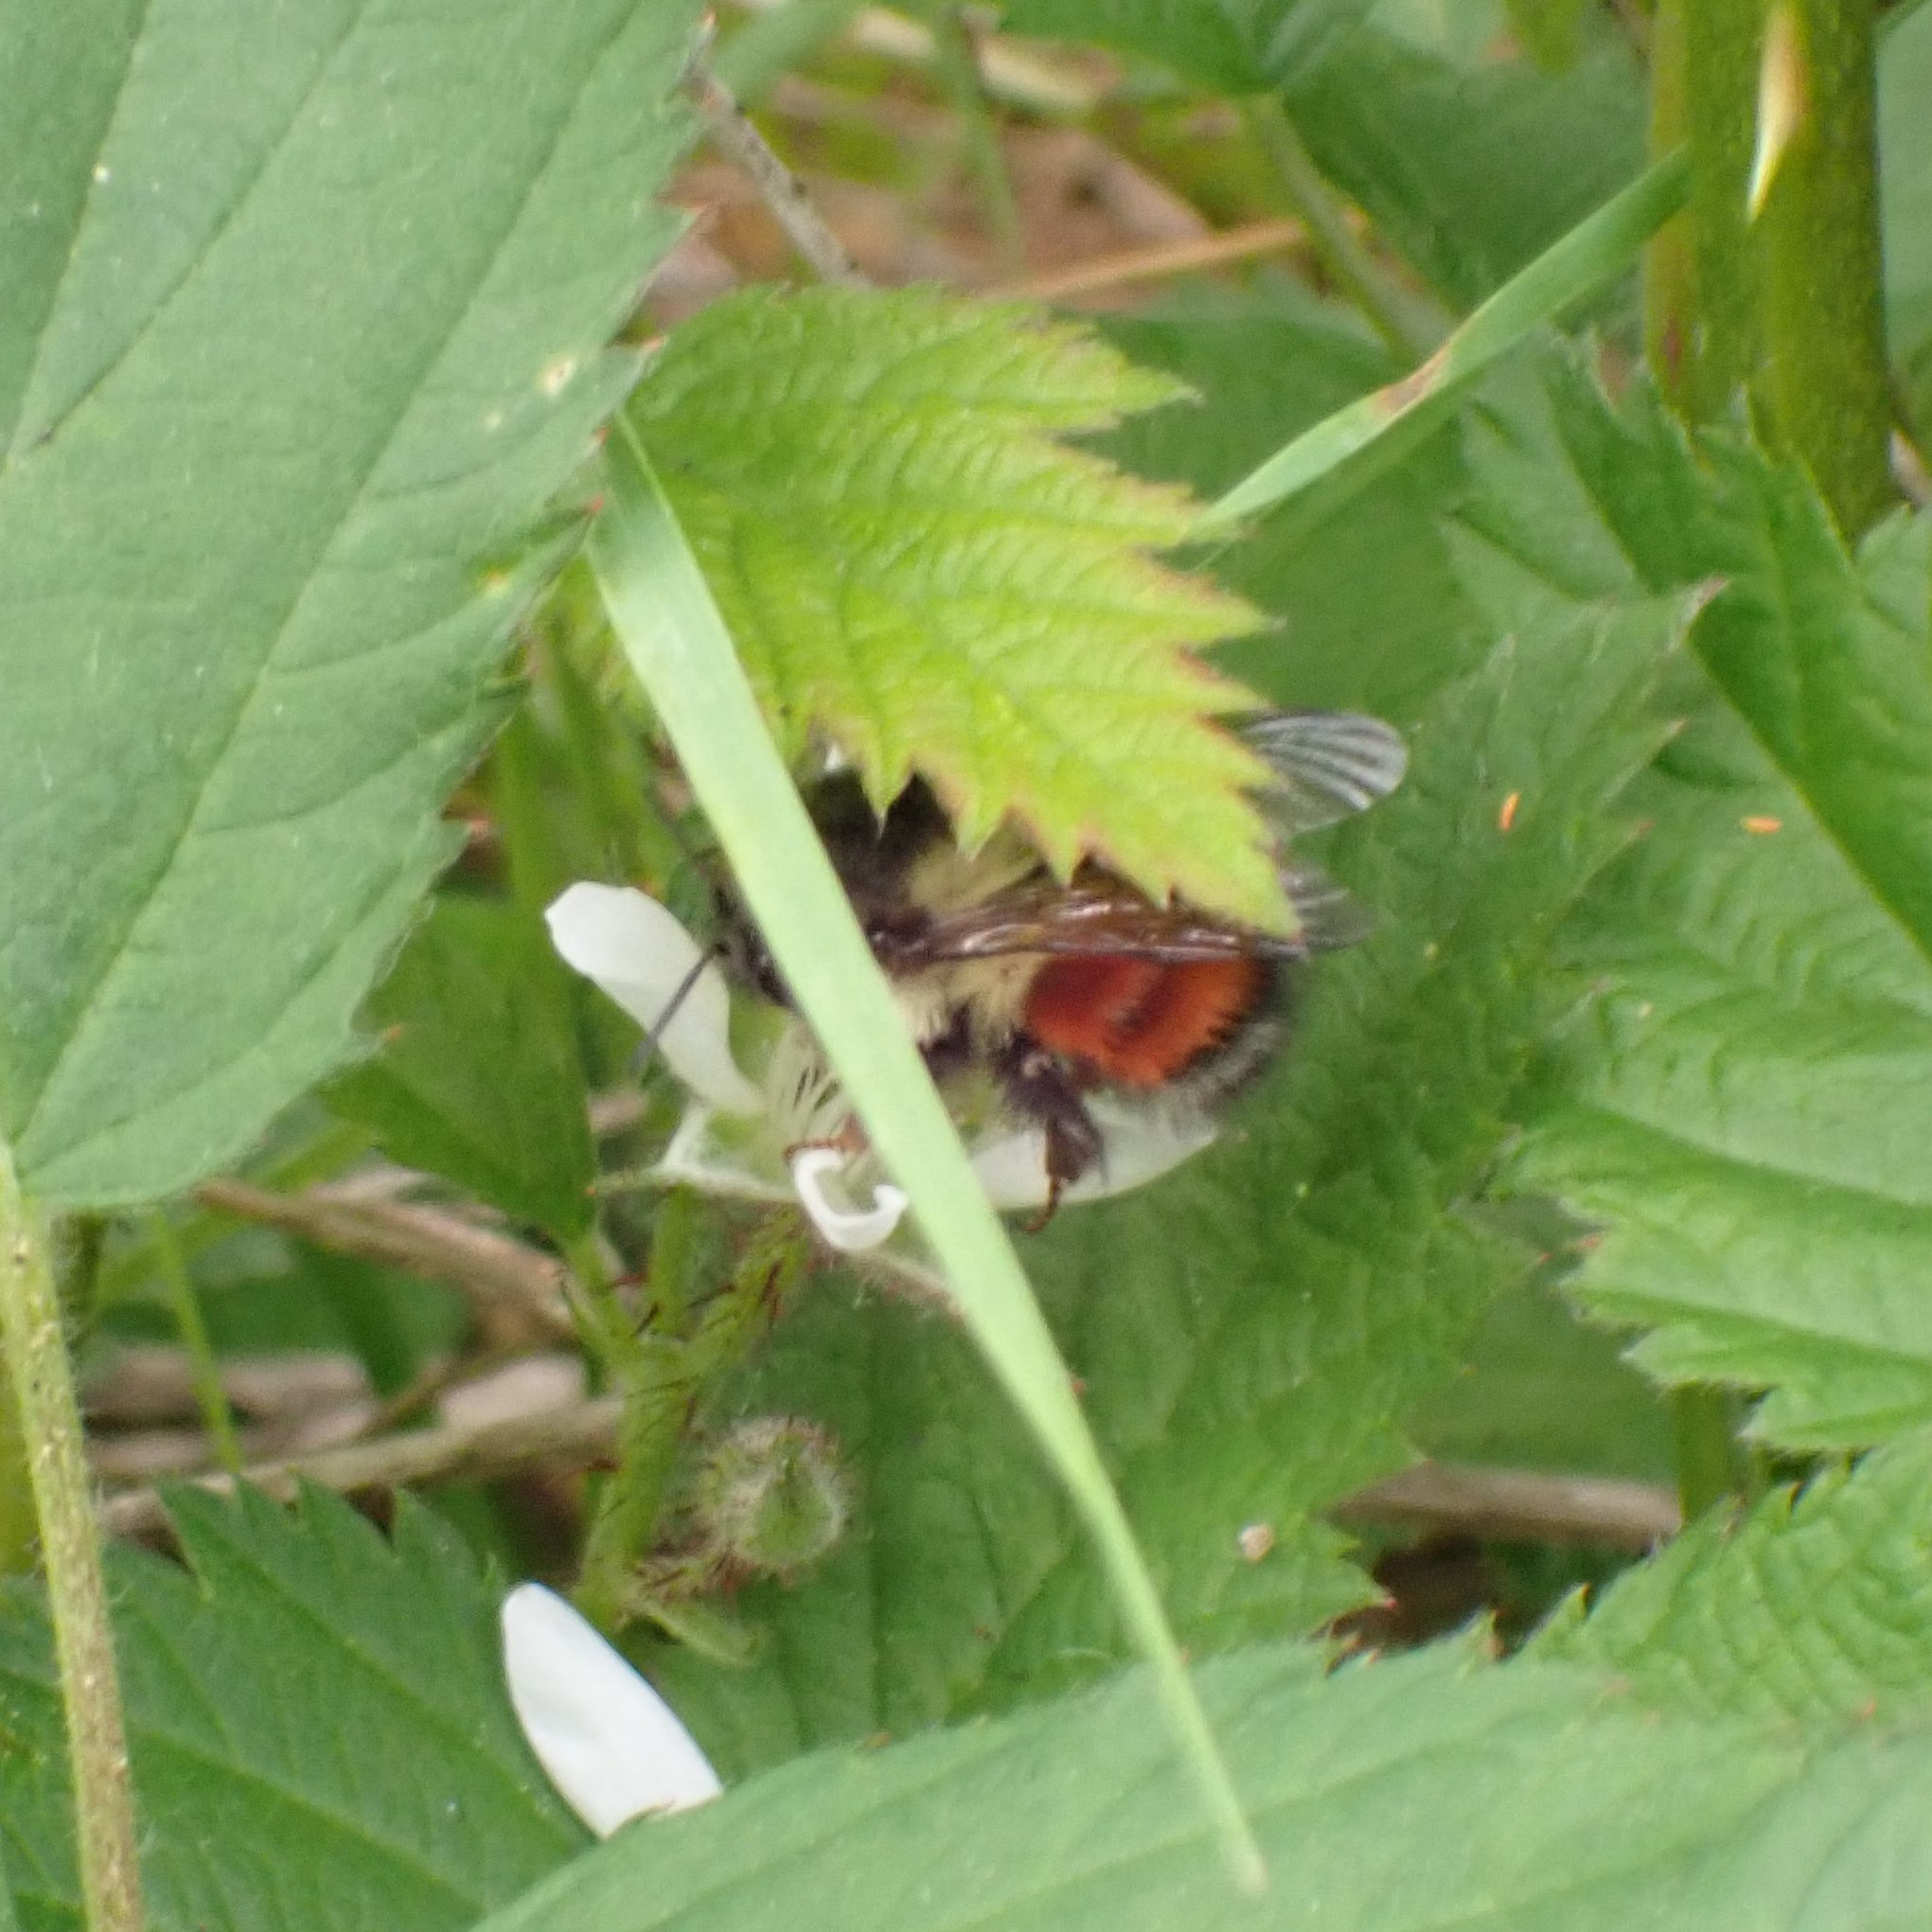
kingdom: Animalia
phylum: Arthropoda
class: Insecta
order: Hymenoptera
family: Apidae
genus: Bombus
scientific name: Bombus melanopygus
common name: Black tail bumble bee
